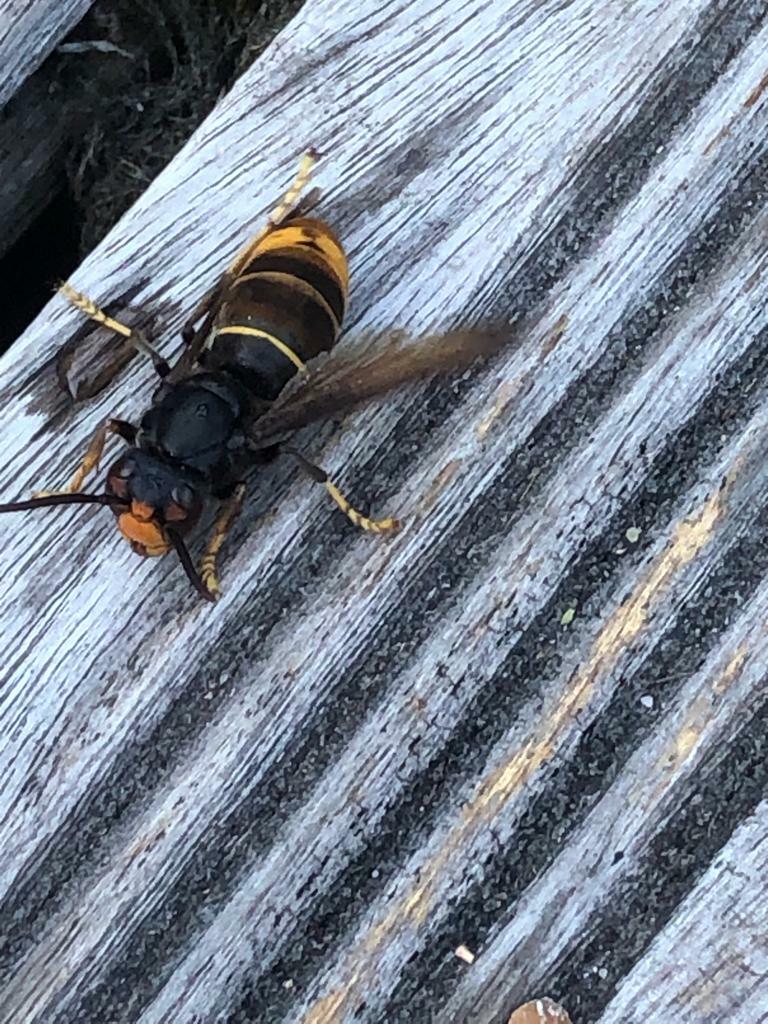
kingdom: Animalia
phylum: Arthropoda
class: Insecta
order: Hymenoptera
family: Vespidae
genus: Vespa
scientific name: Vespa velutina
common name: Asian hornet
